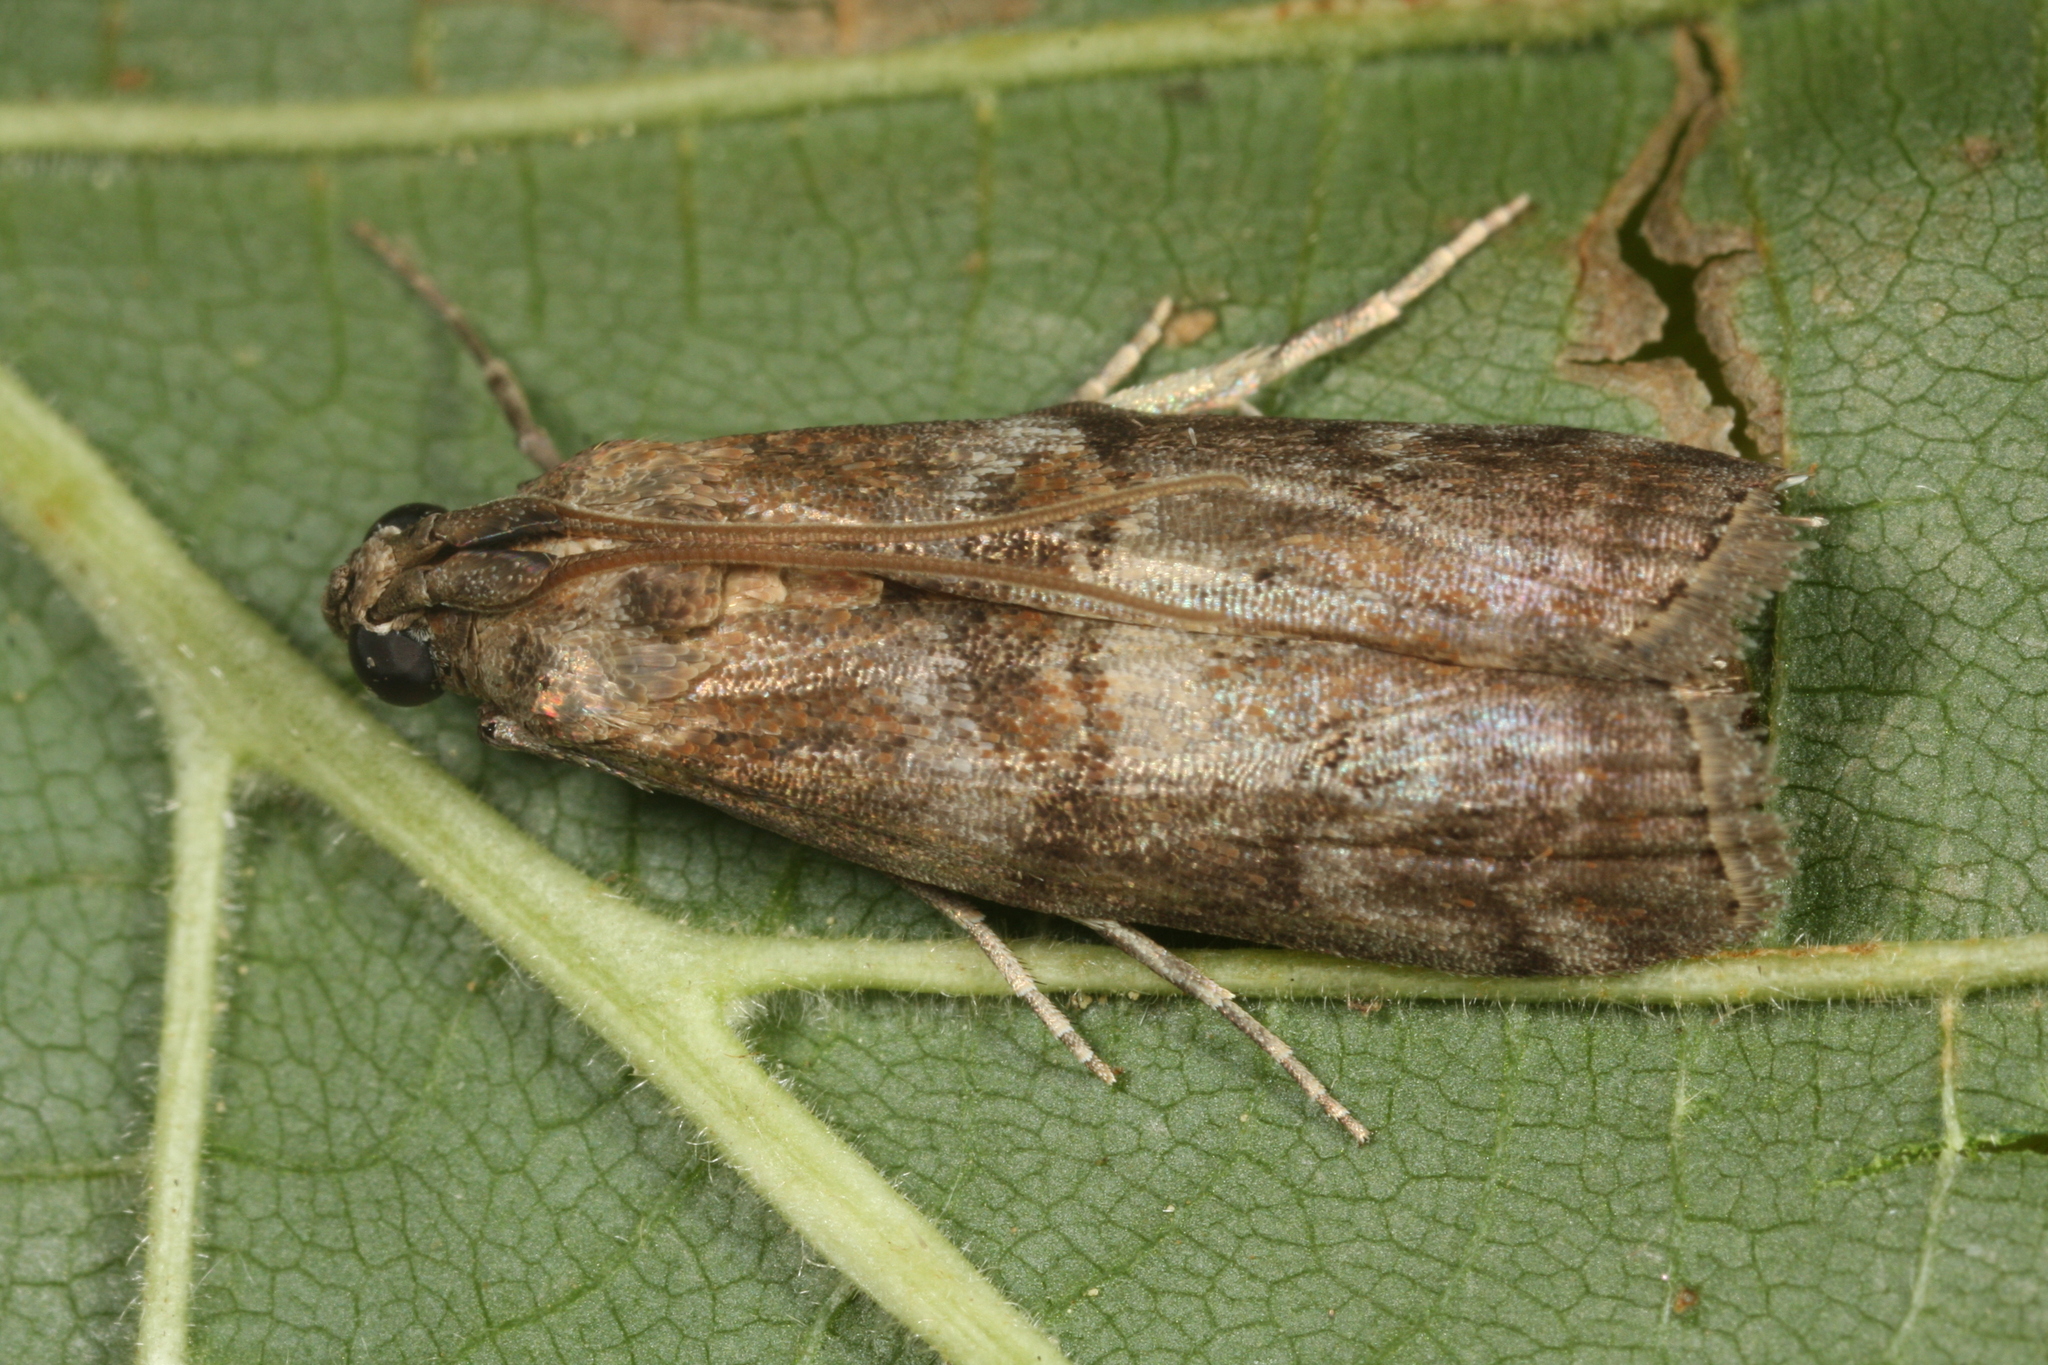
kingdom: Animalia
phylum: Arthropoda
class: Insecta
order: Lepidoptera
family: Pyralidae
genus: Phycita
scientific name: Phycita roborella
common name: Dotted oak knot-horn
